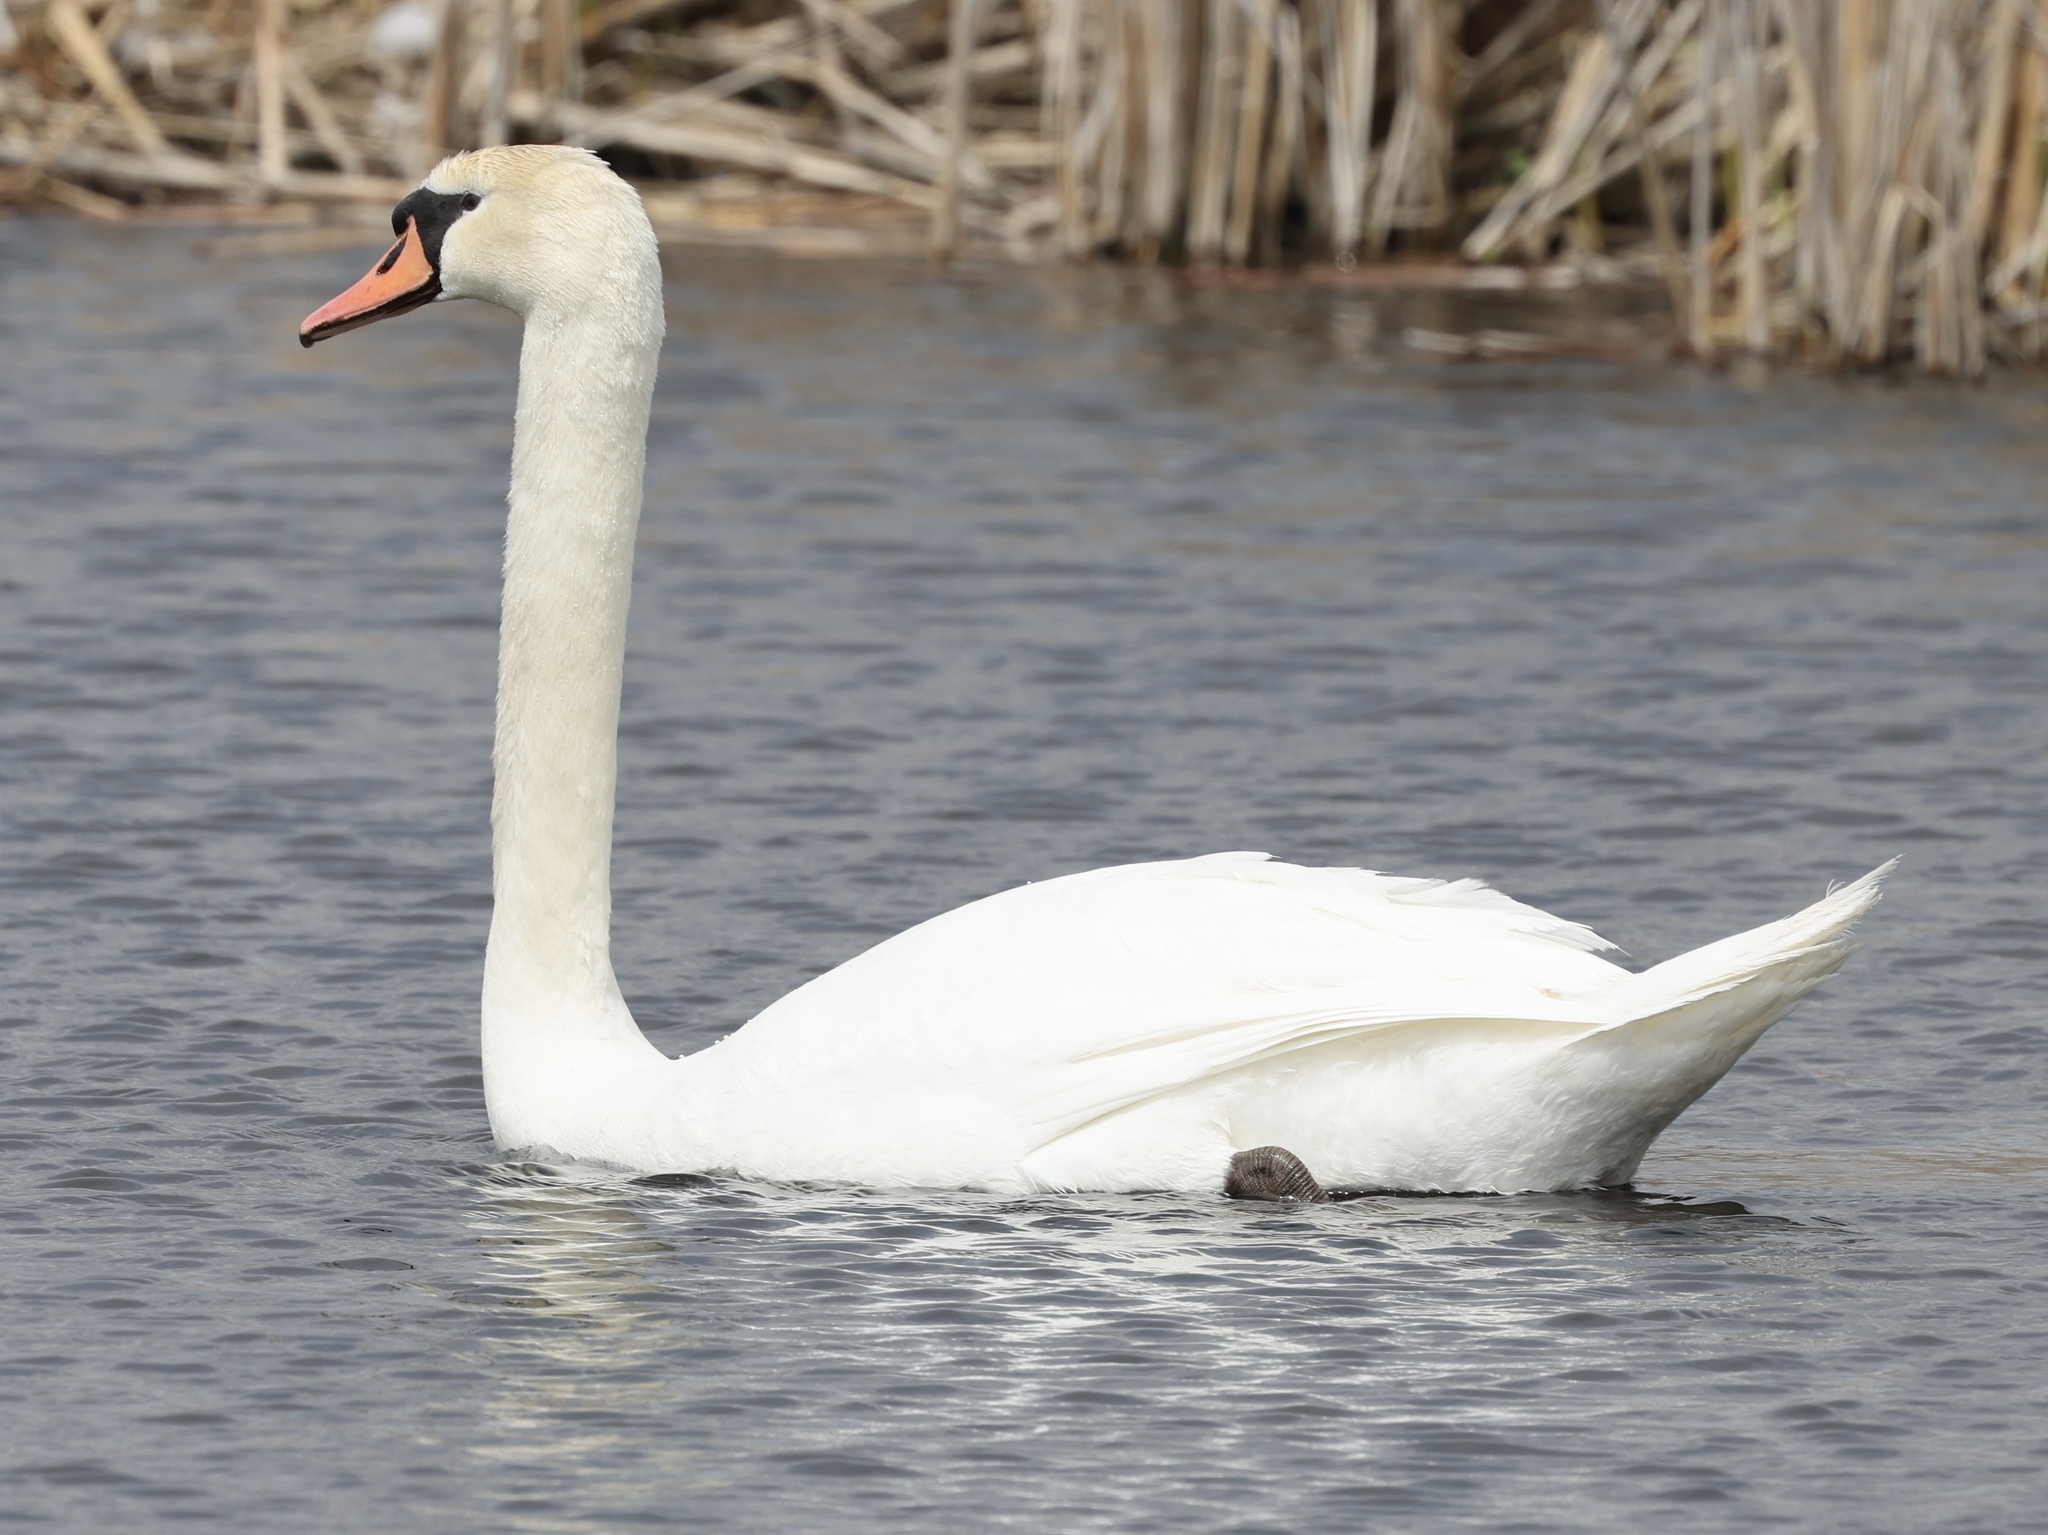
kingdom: Animalia
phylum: Chordata
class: Aves
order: Anseriformes
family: Anatidae
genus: Cygnus
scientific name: Cygnus olor
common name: Mute swan
